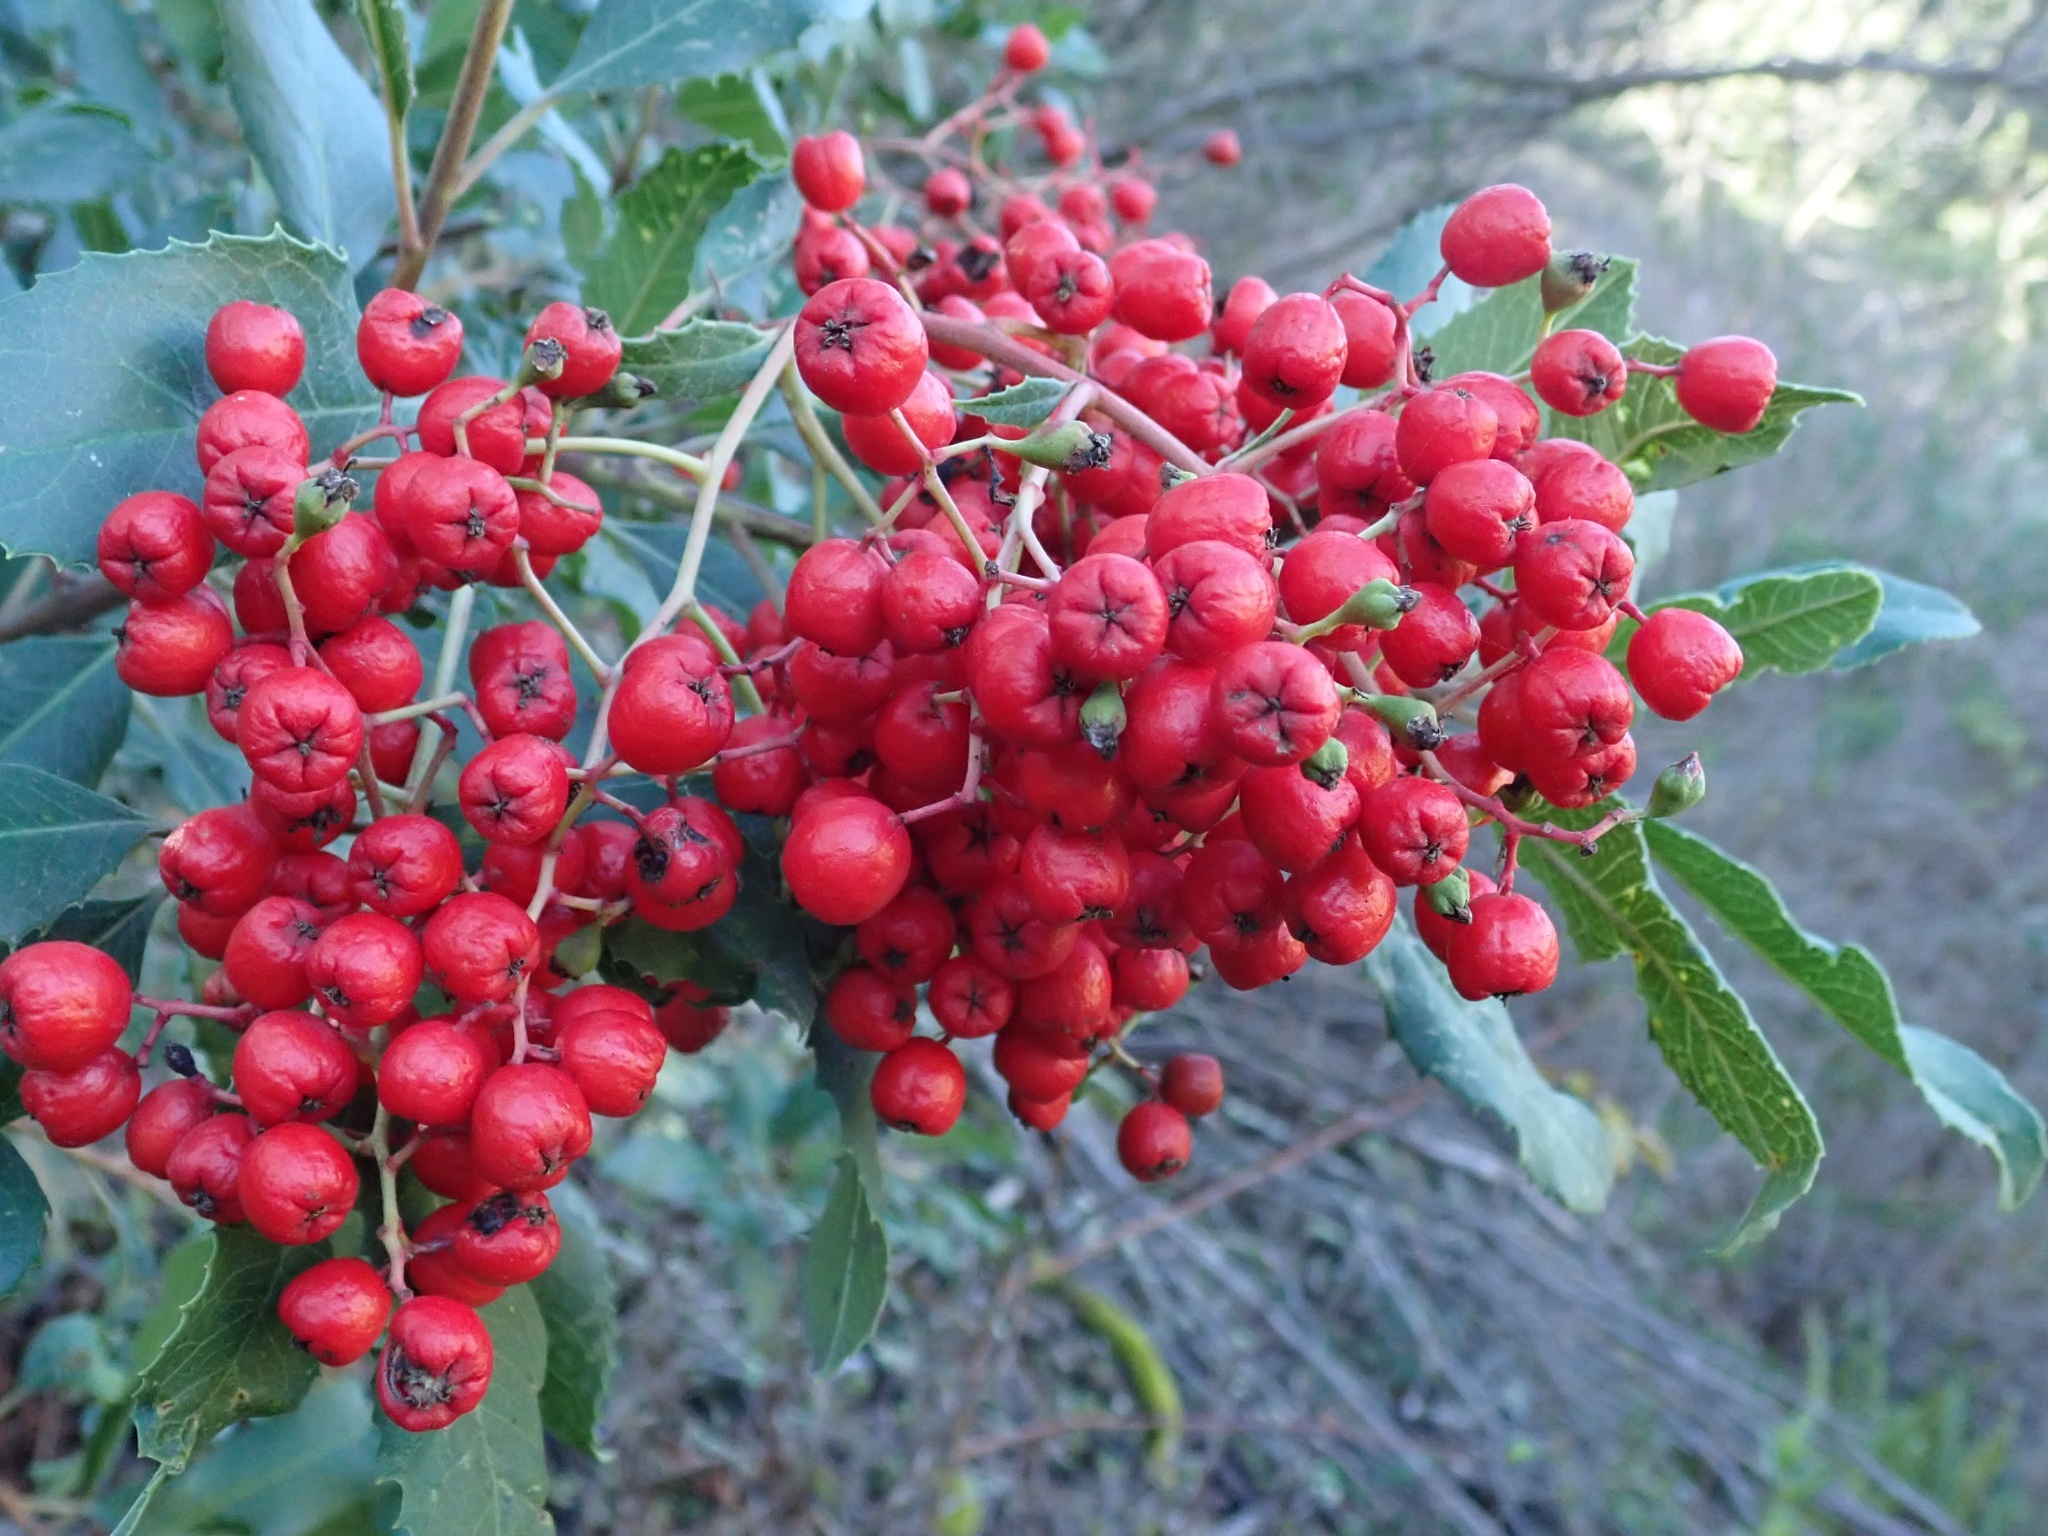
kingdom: Plantae
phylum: Tracheophyta
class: Magnoliopsida
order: Rosales
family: Rosaceae
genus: Heteromeles
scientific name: Heteromeles arbutifolia
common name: California-holly
